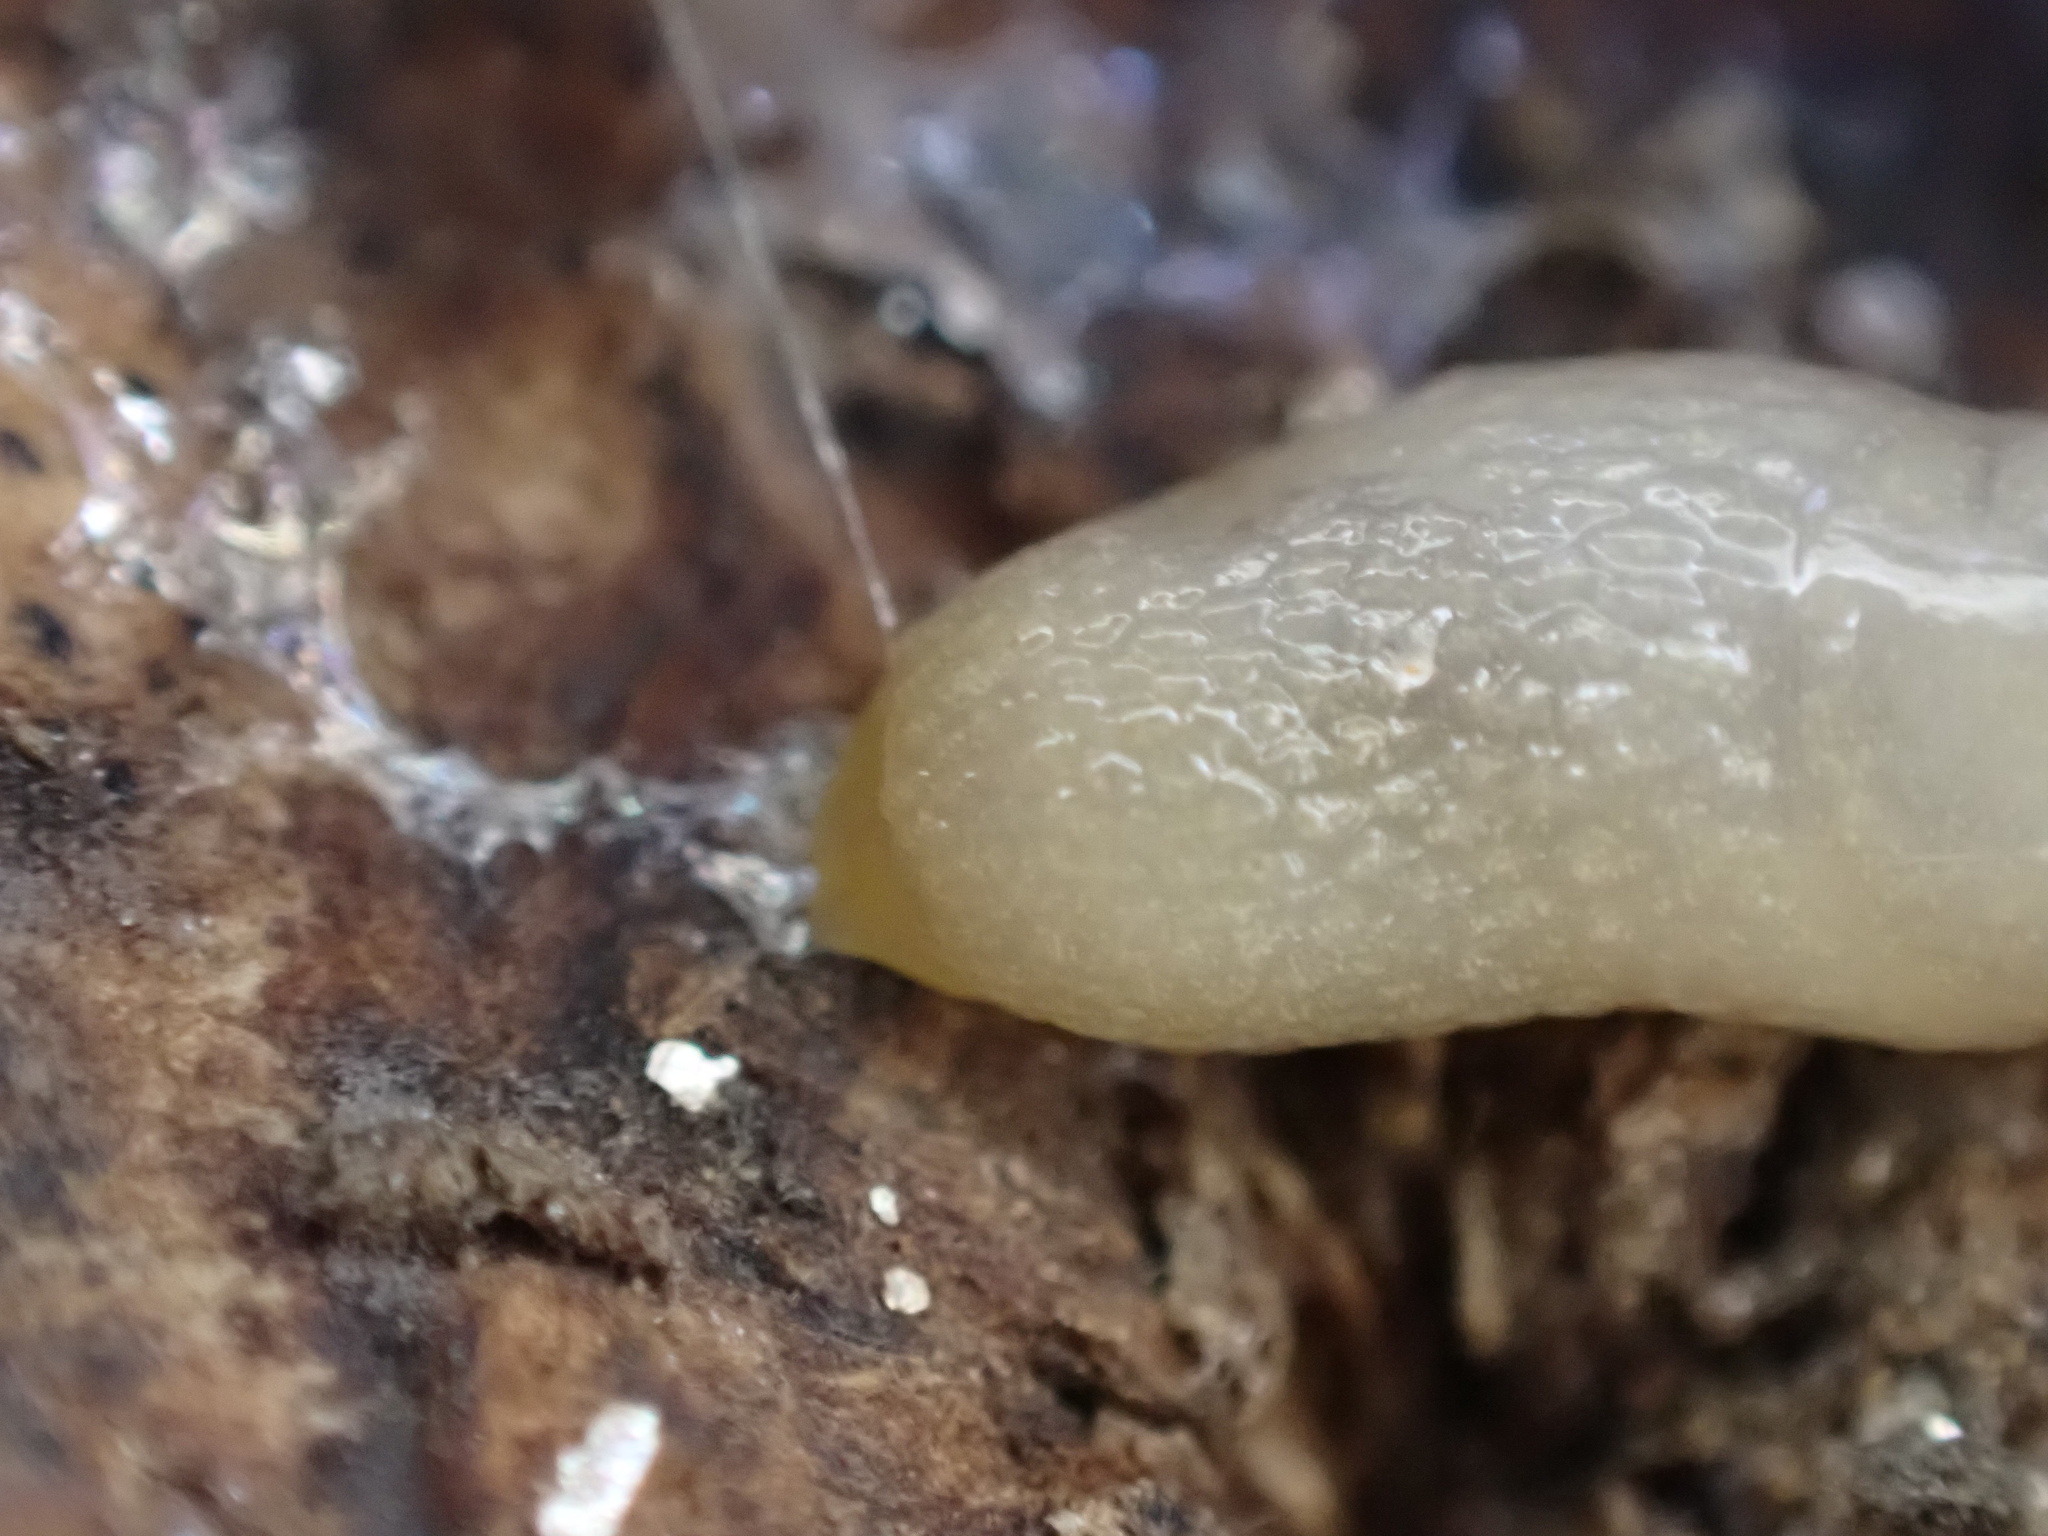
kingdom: Animalia
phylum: Mollusca
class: Gastropoda
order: Stylommatophora
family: Arionidae
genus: Arion
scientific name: Arion intermedius
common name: Hedgehog slug
